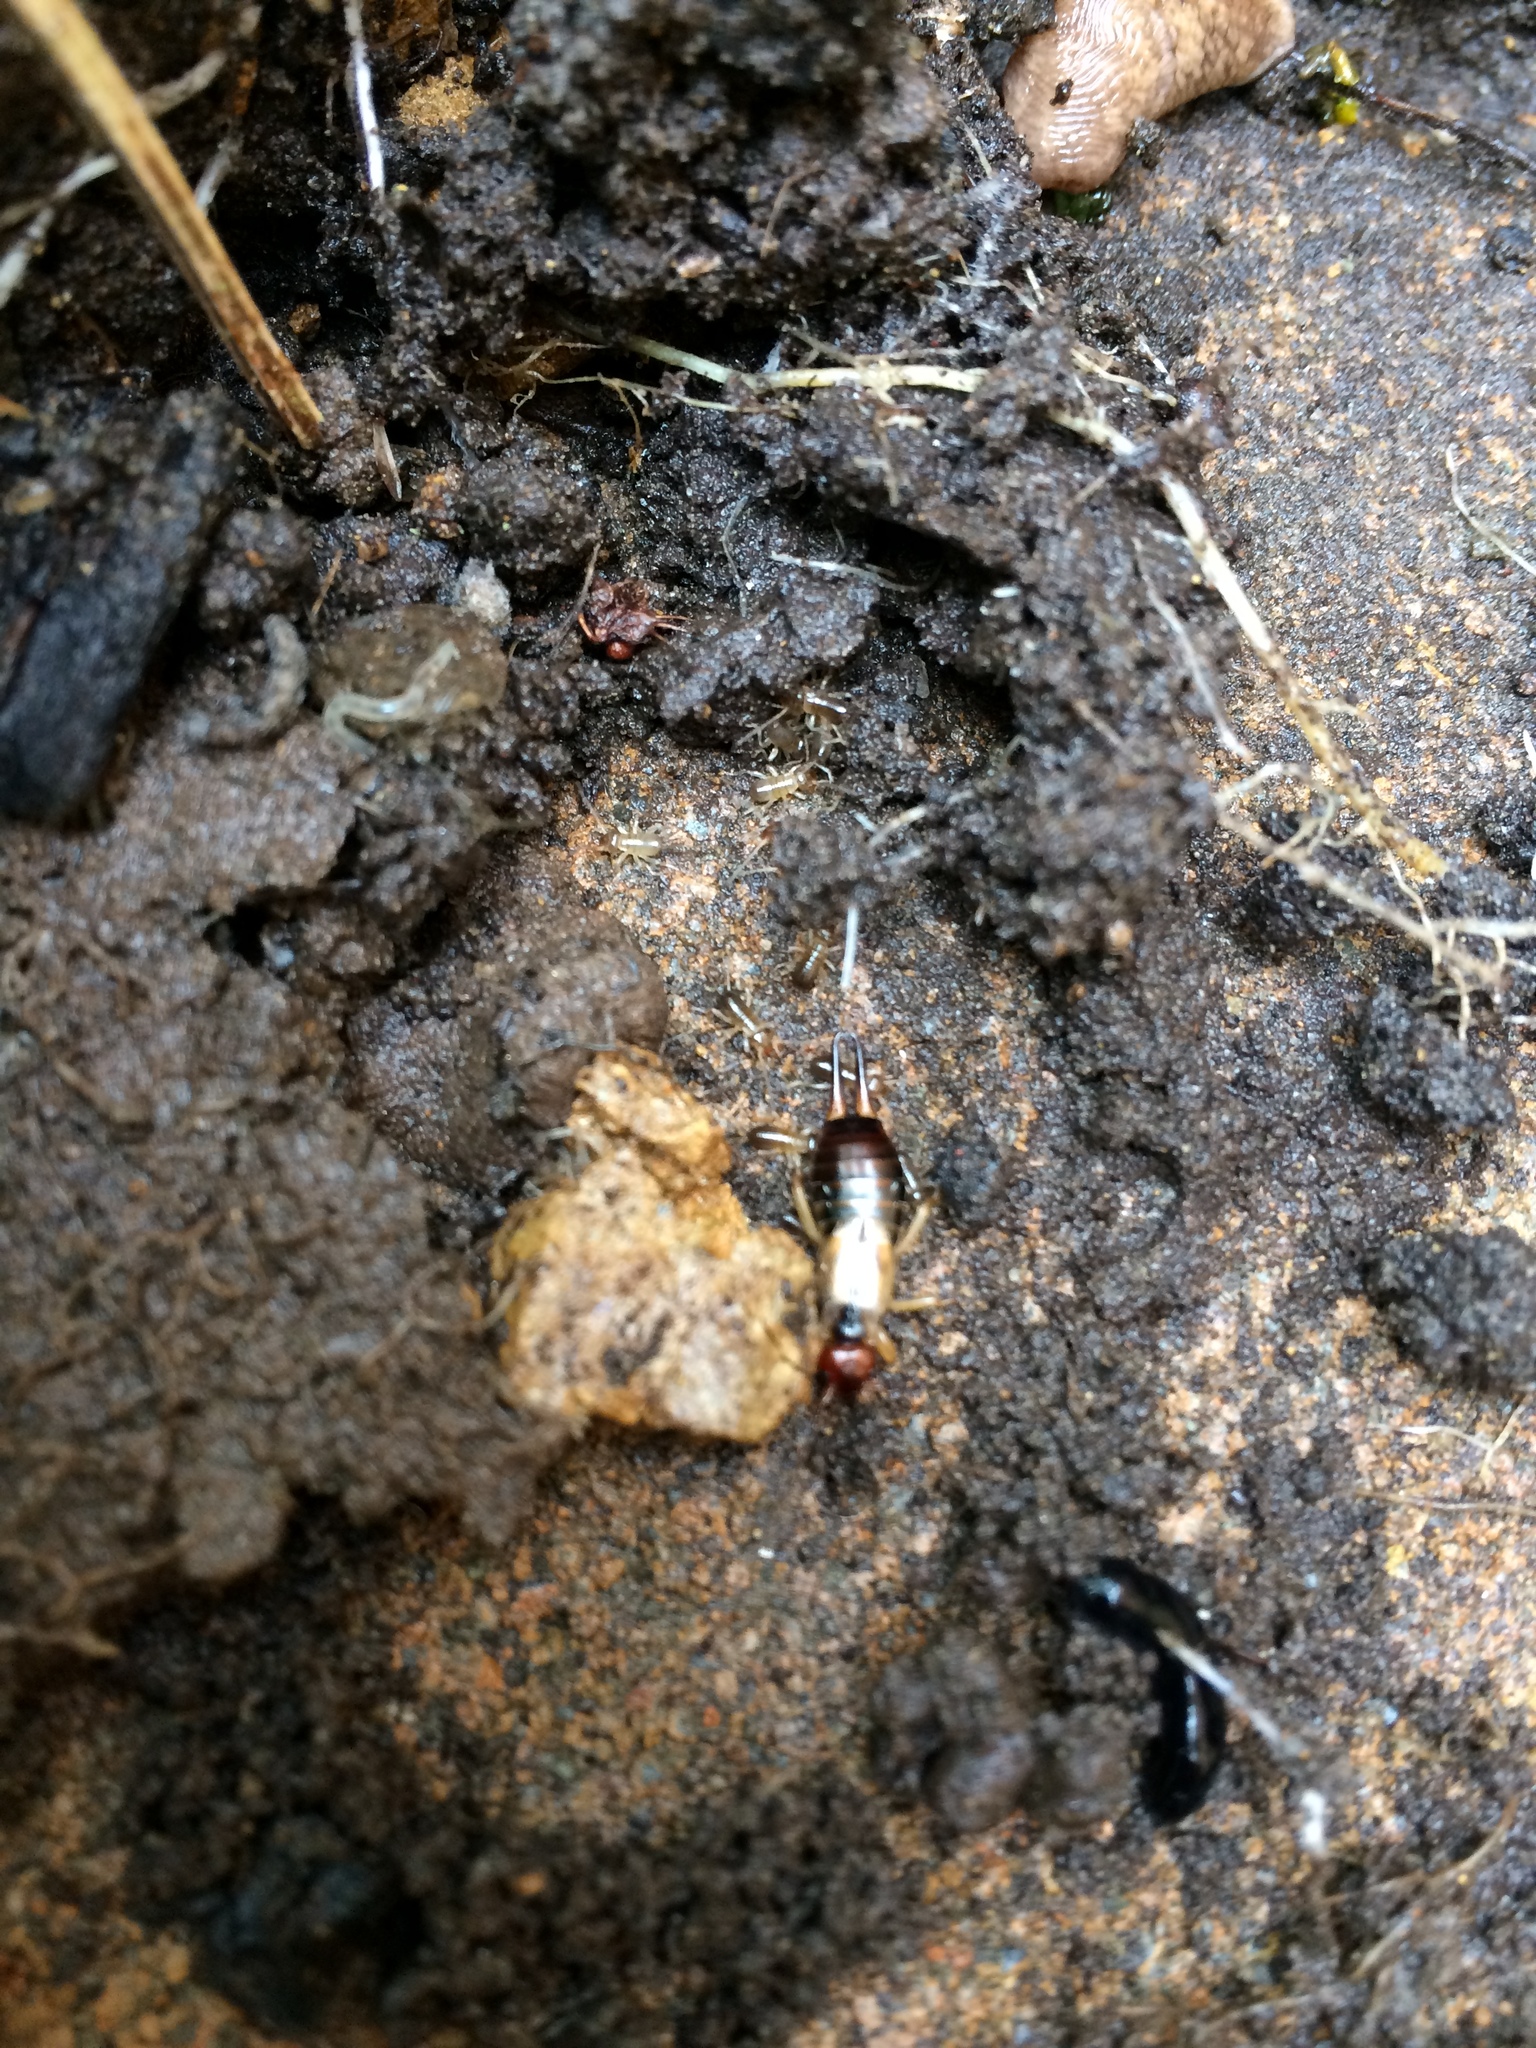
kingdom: Animalia
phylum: Arthropoda
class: Insecta
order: Dermaptera
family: Forficulidae
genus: Forficula
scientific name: Forficula
